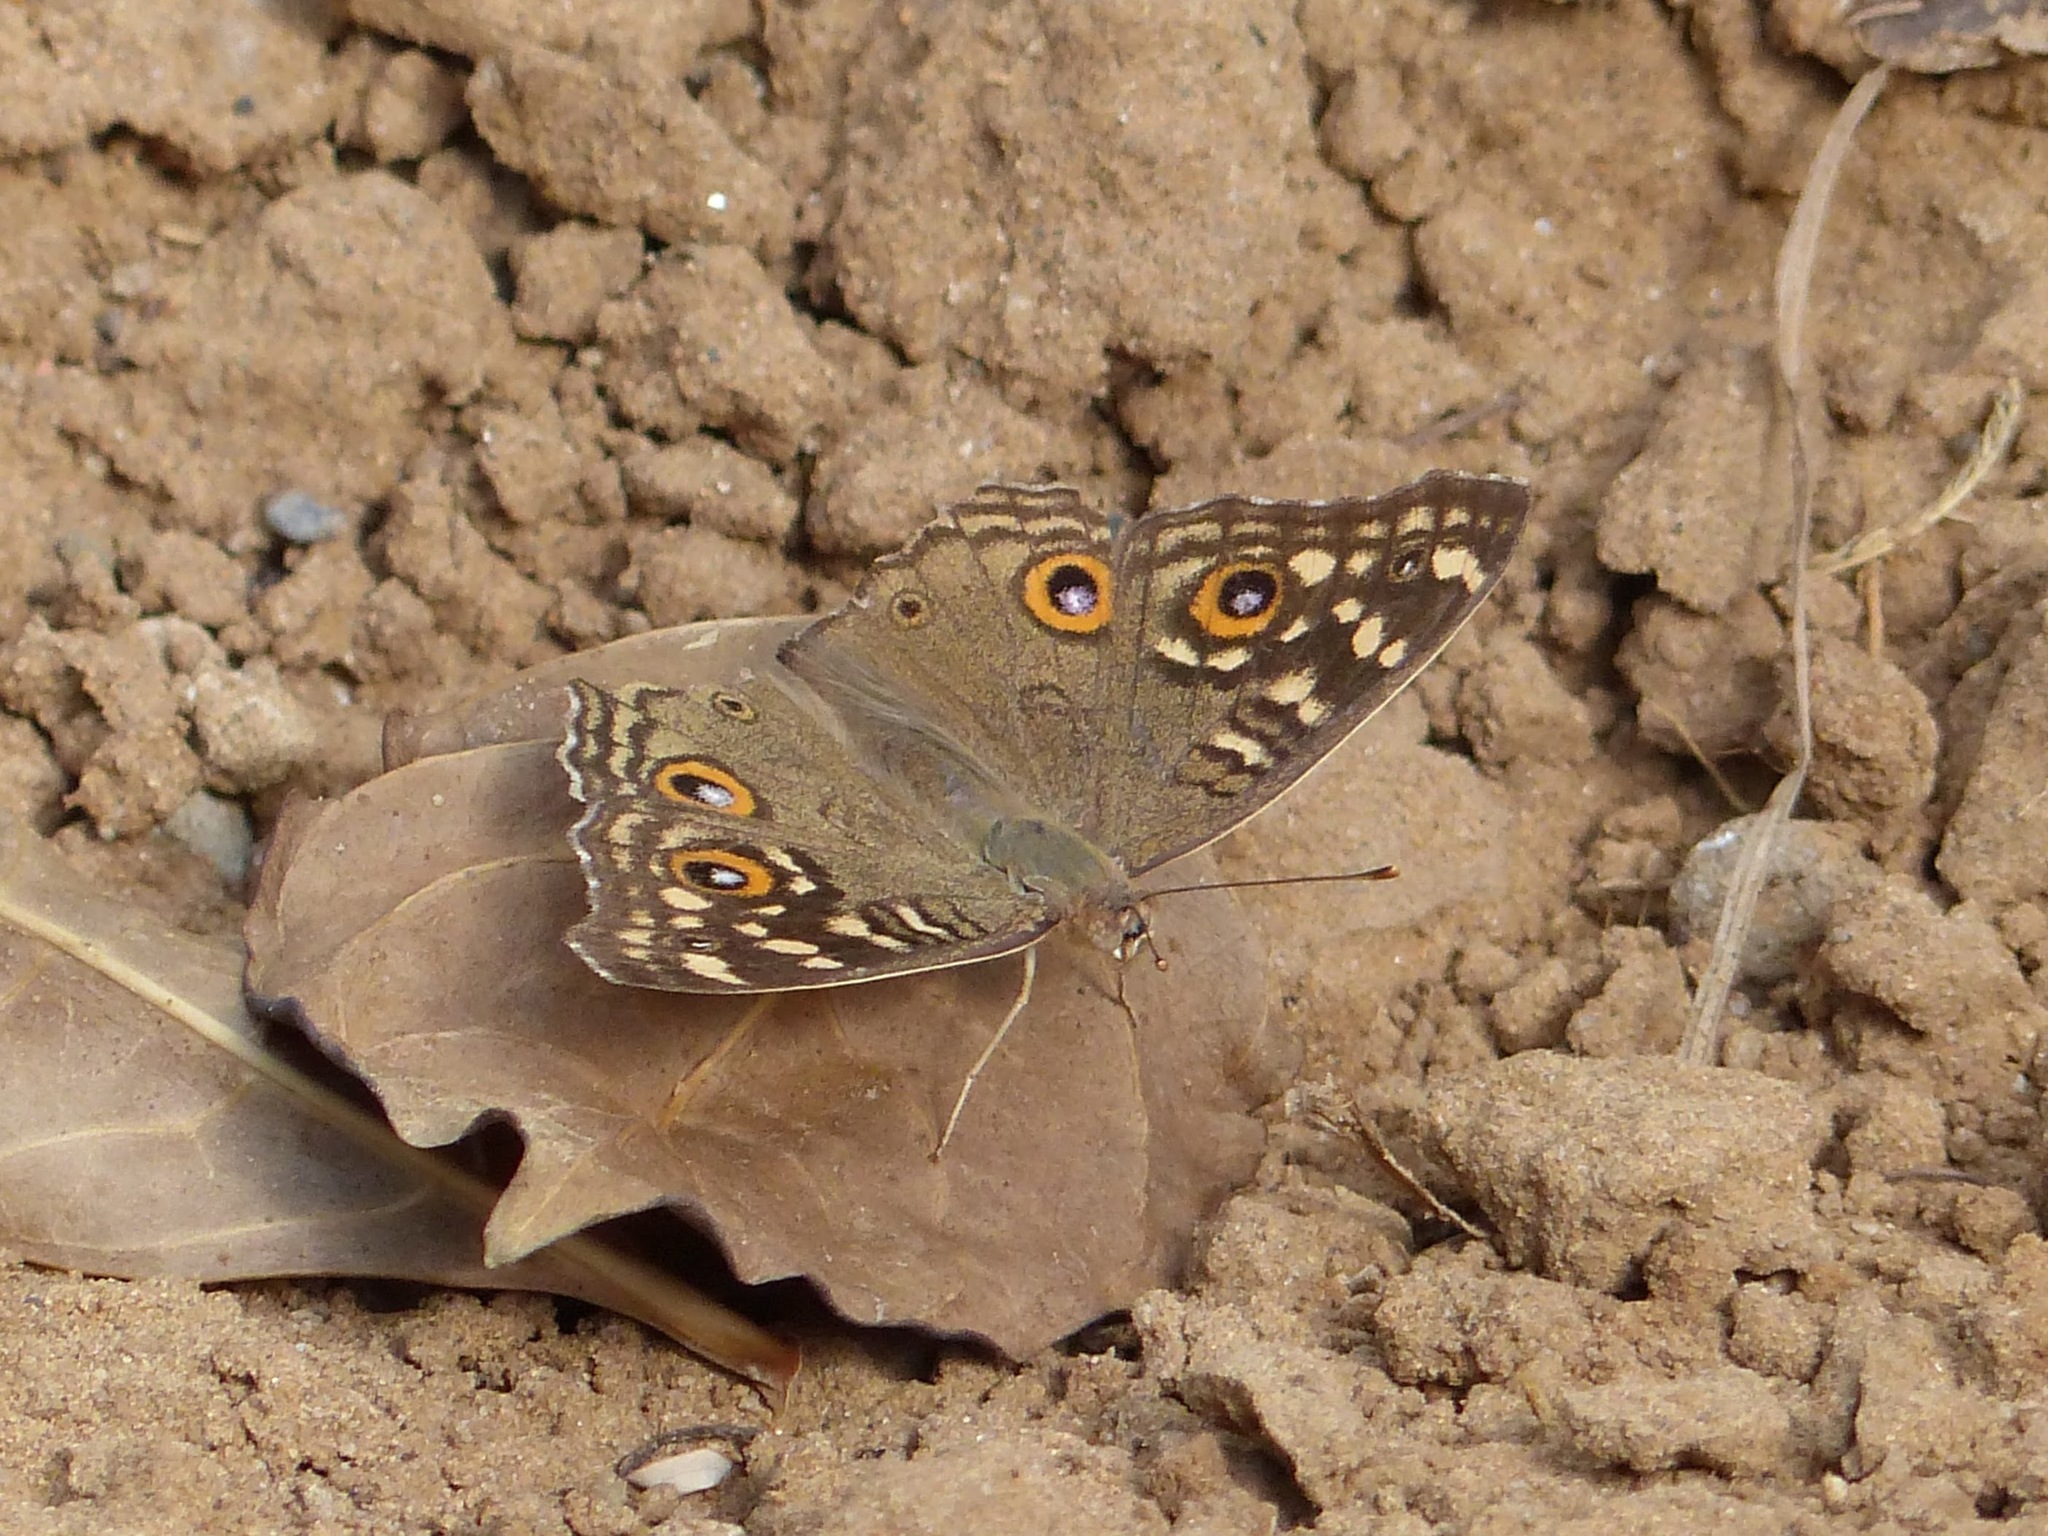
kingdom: Animalia
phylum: Arthropoda
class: Insecta
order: Lepidoptera
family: Nymphalidae
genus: Junonia
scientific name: Junonia lemonias
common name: Lemon pansy
